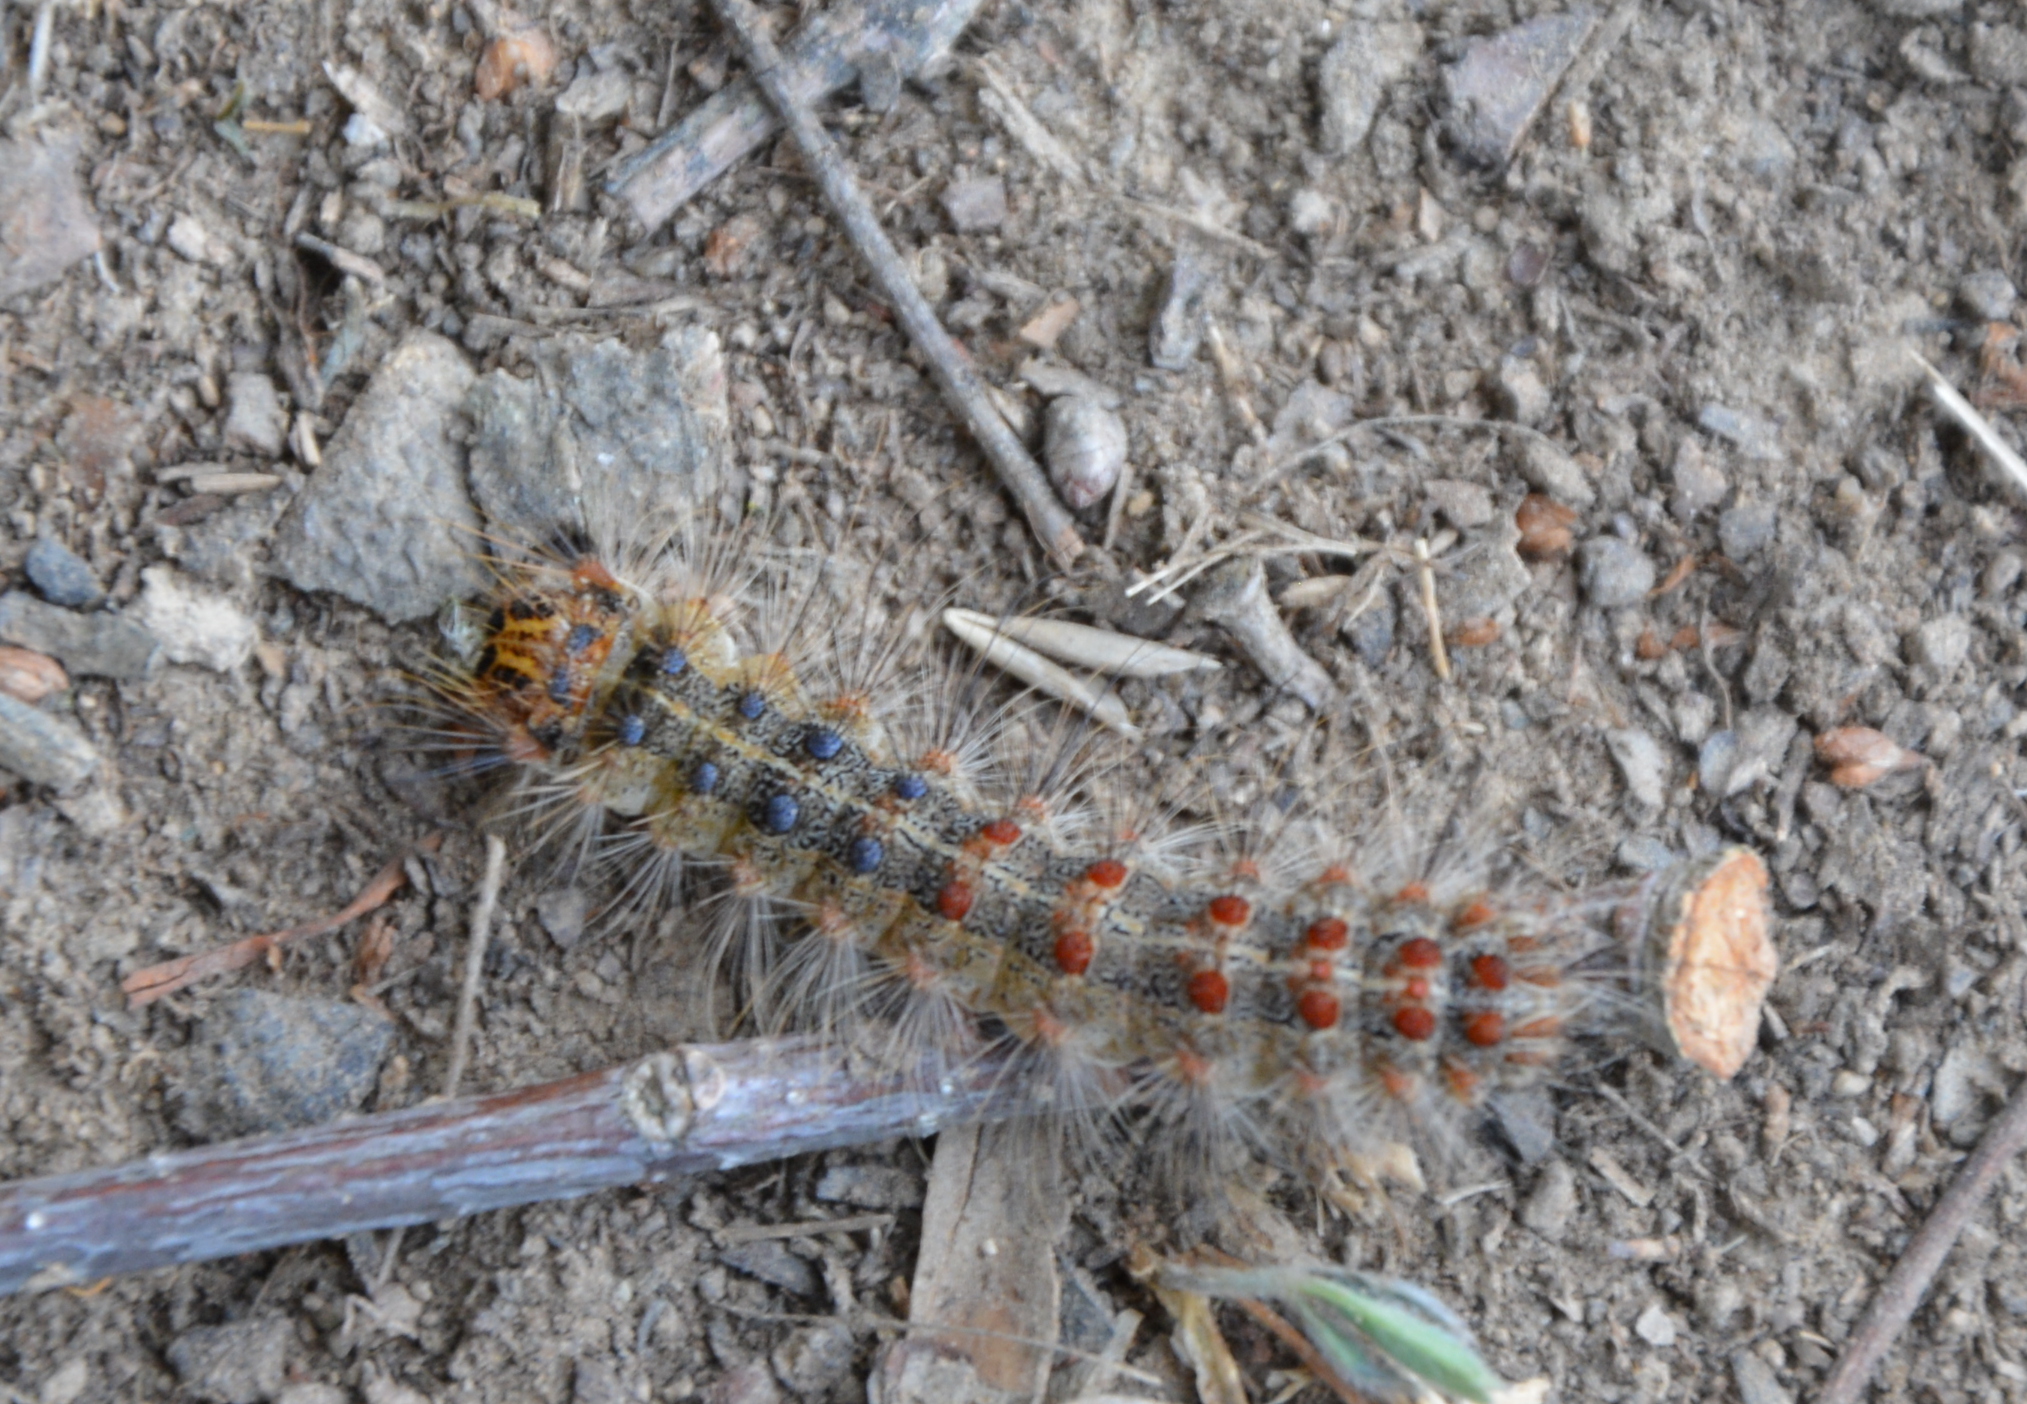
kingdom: Animalia
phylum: Arthropoda
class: Insecta
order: Lepidoptera
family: Erebidae
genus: Lymantria
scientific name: Lymantria dispar
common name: Gypsy moth
